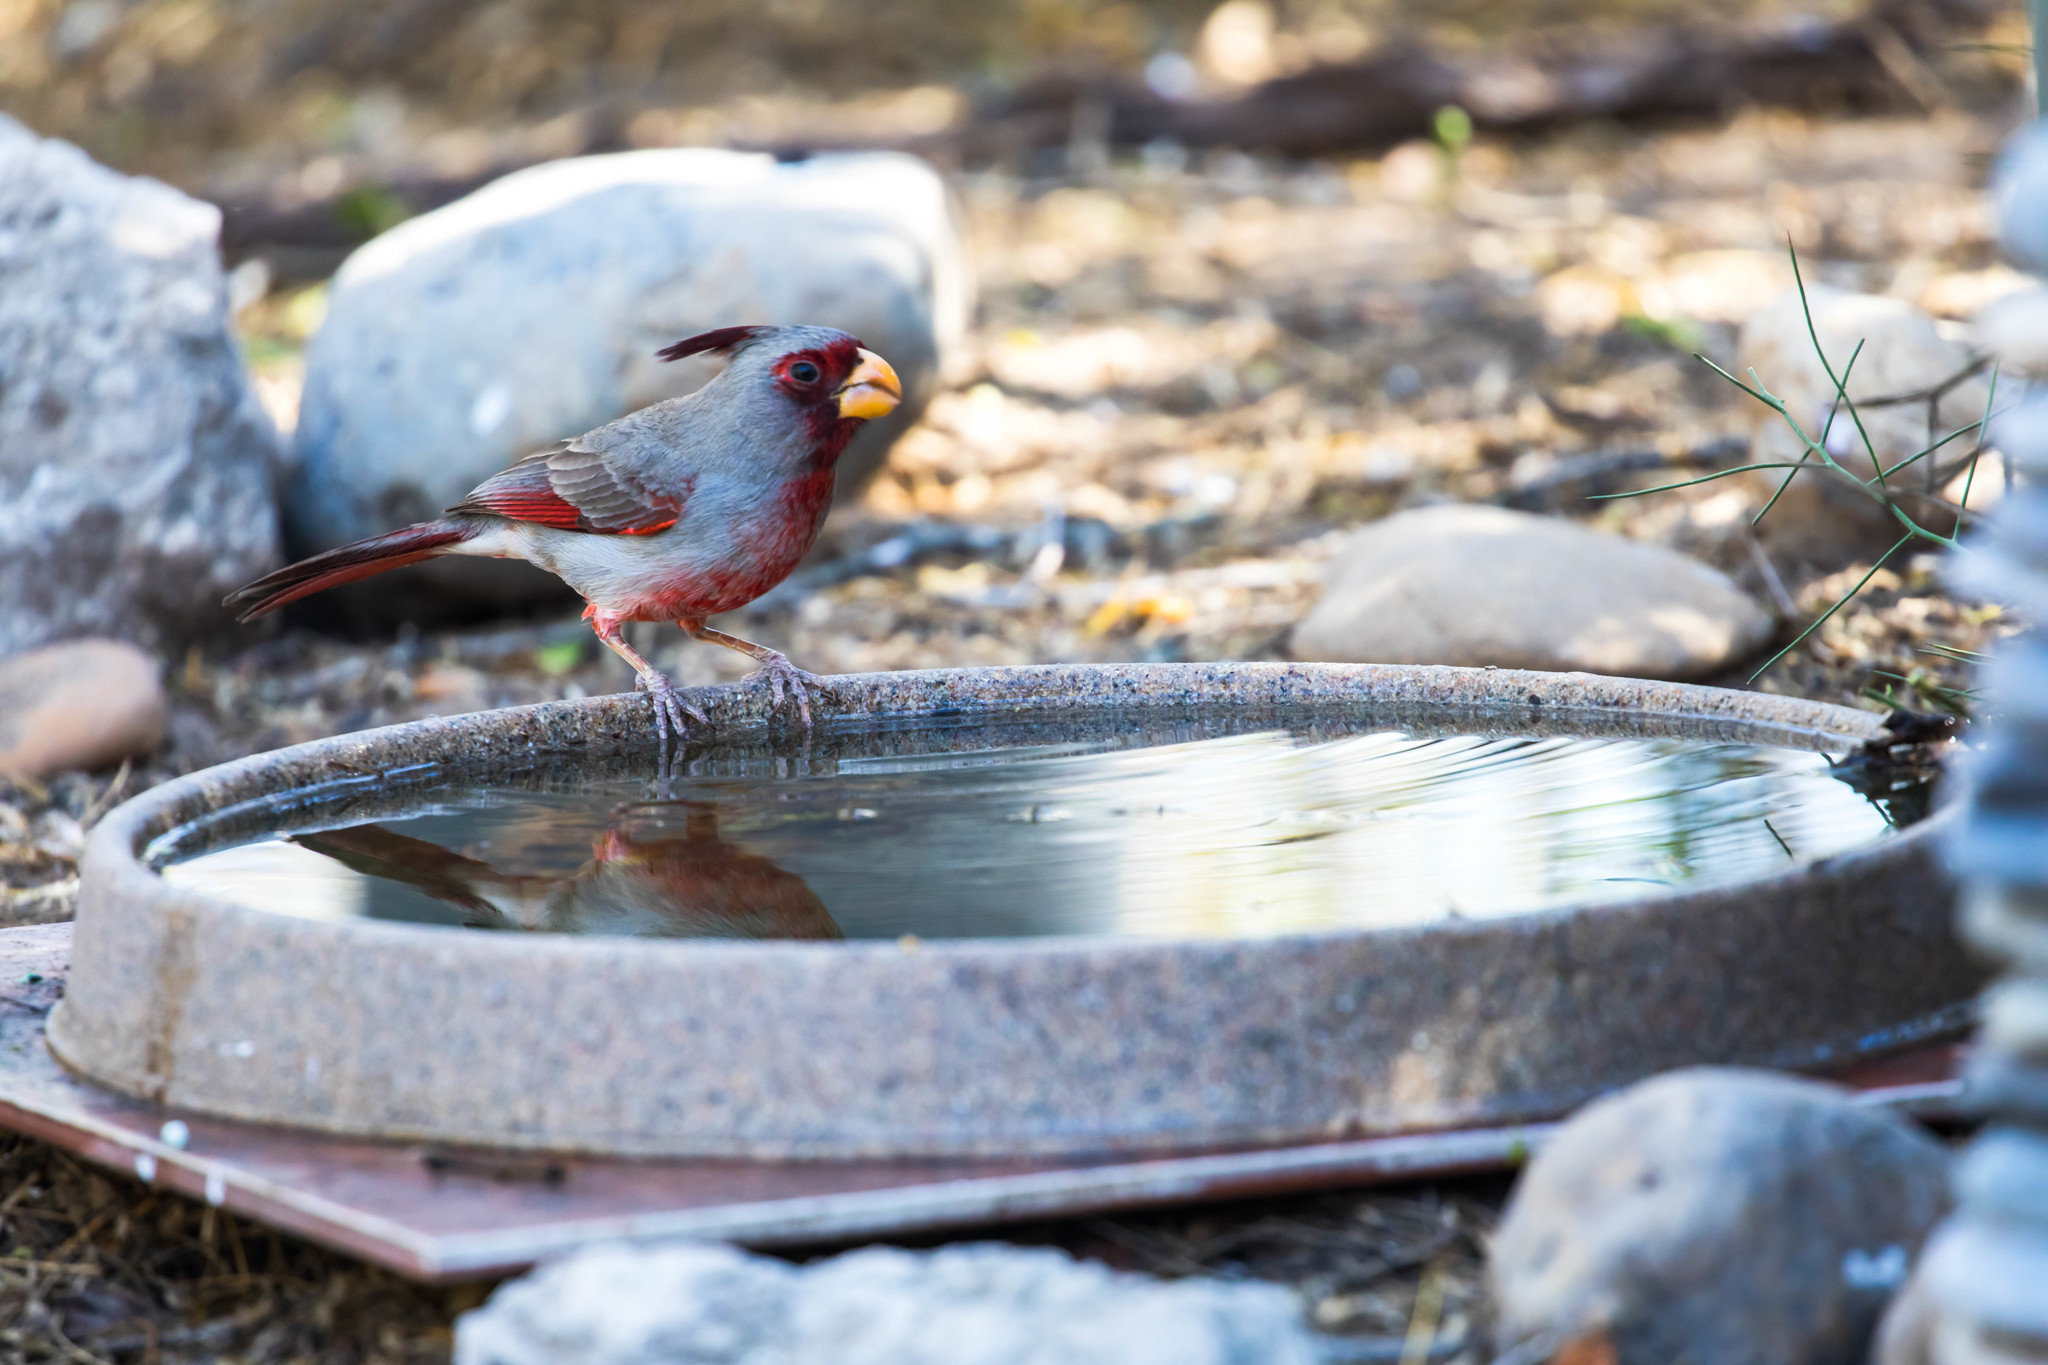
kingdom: Animalia
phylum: Chordata
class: Aves
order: Passeriformes
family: Cardinalidae
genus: Cardinalis
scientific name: Cardinalis sinuatus
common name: Pyrrhuloxia
